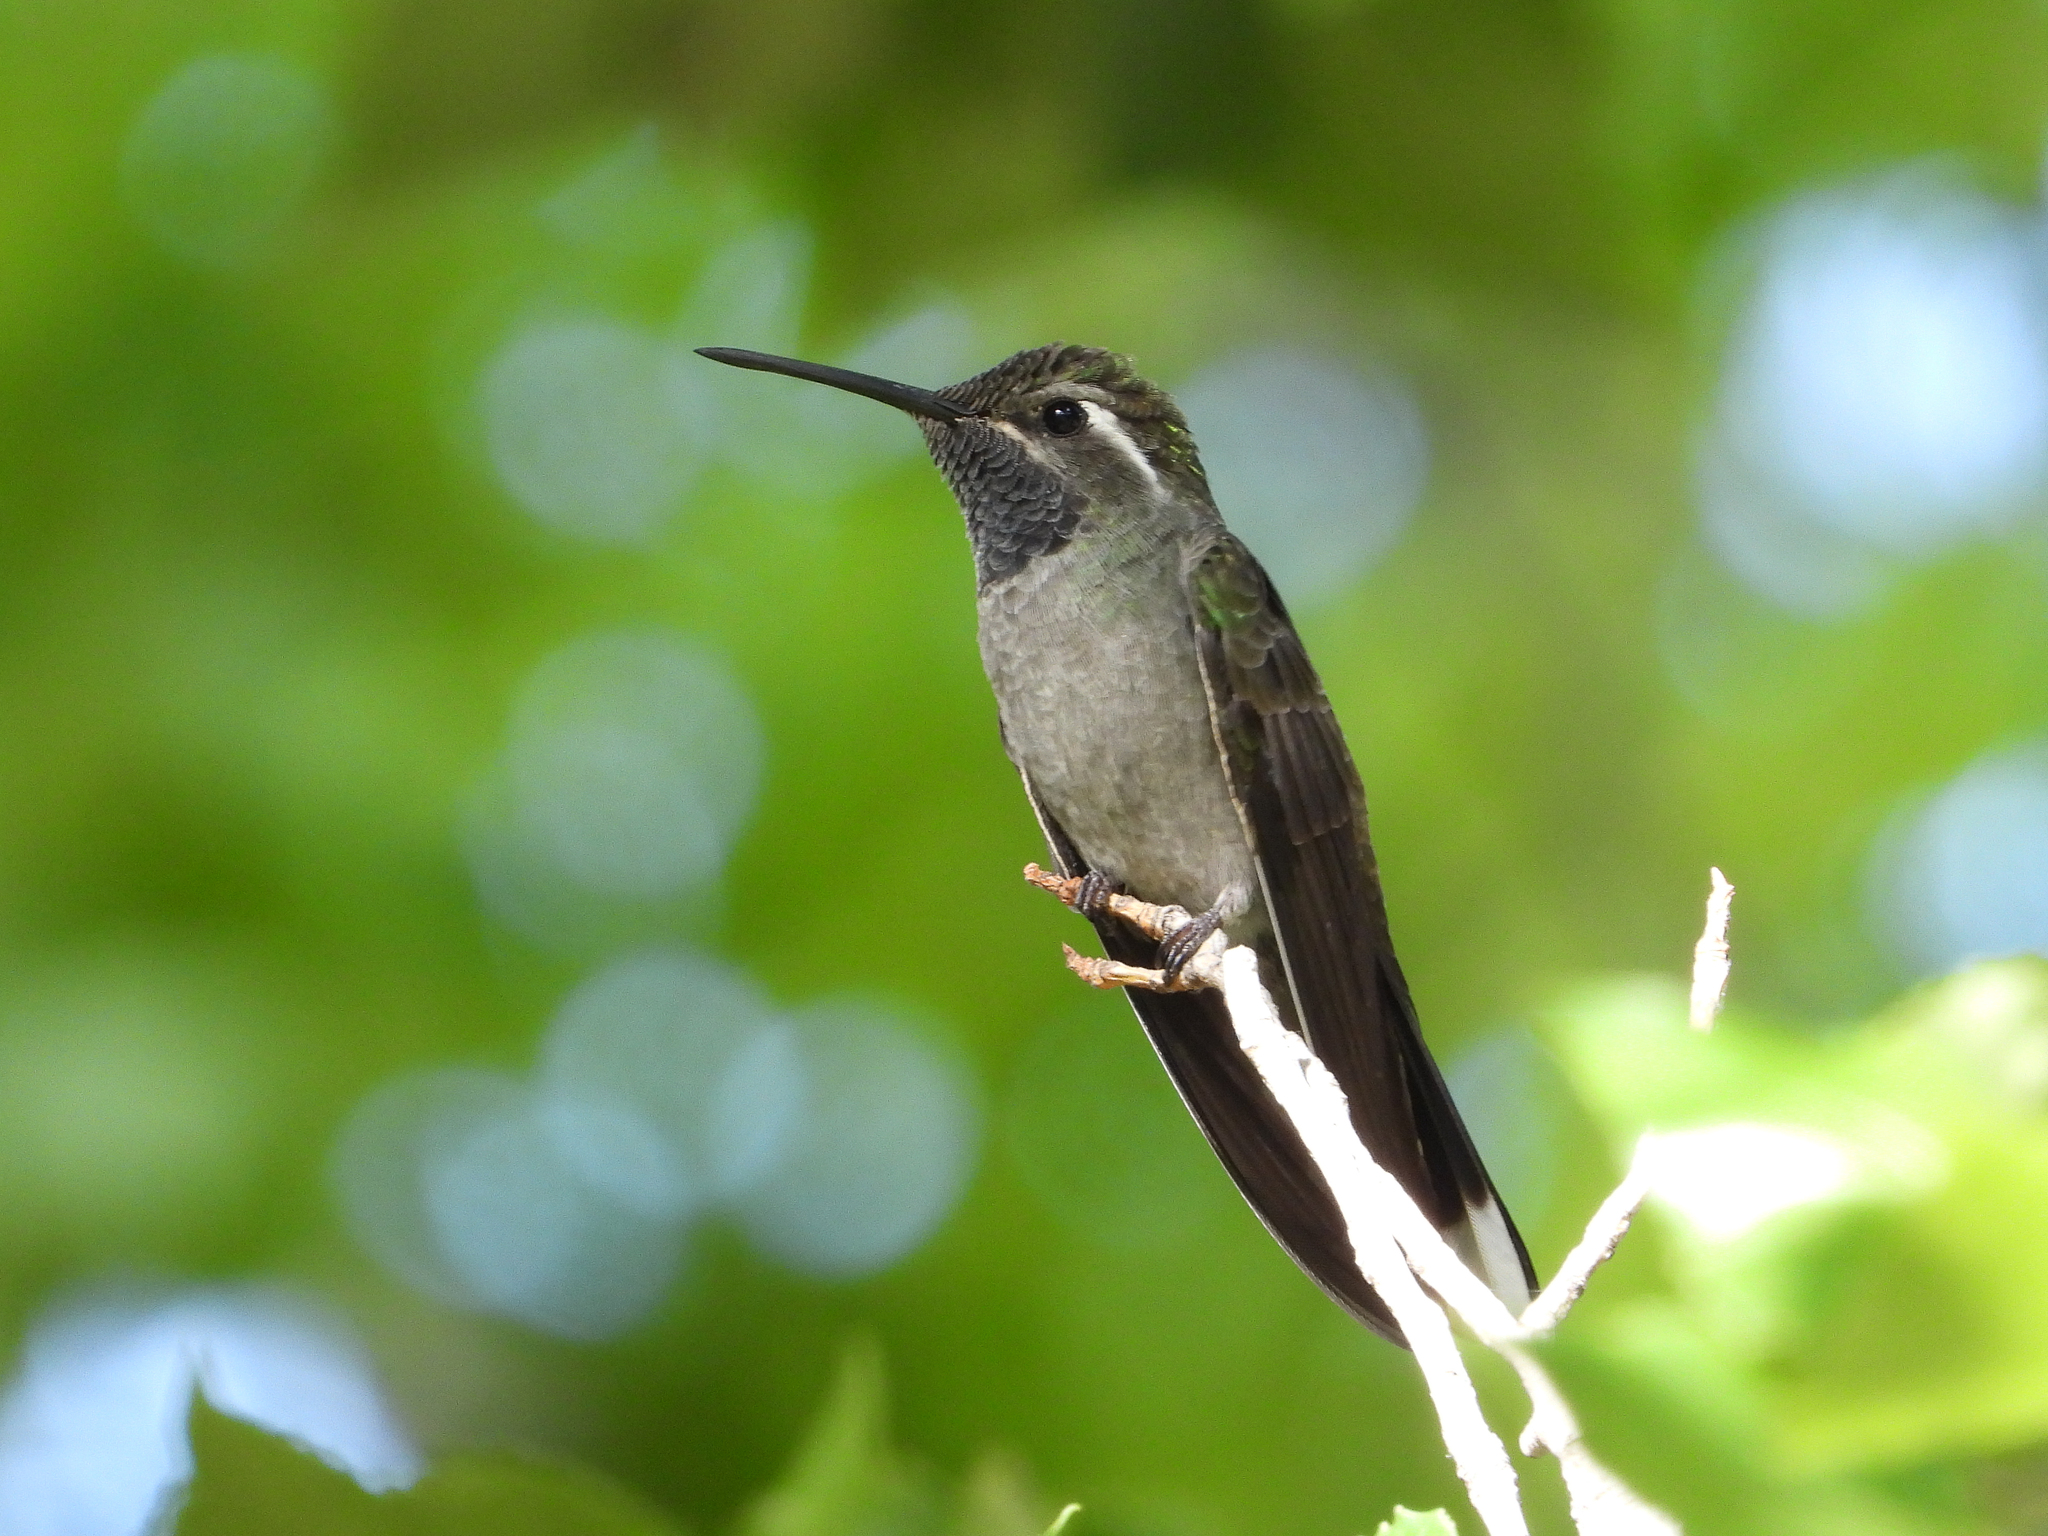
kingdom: Animalia
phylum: Chordata
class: Aves
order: Apodiformes
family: Trochilidae
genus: Lampornis
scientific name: Lampornis clemenciae
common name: Blue-throated mountaingem
